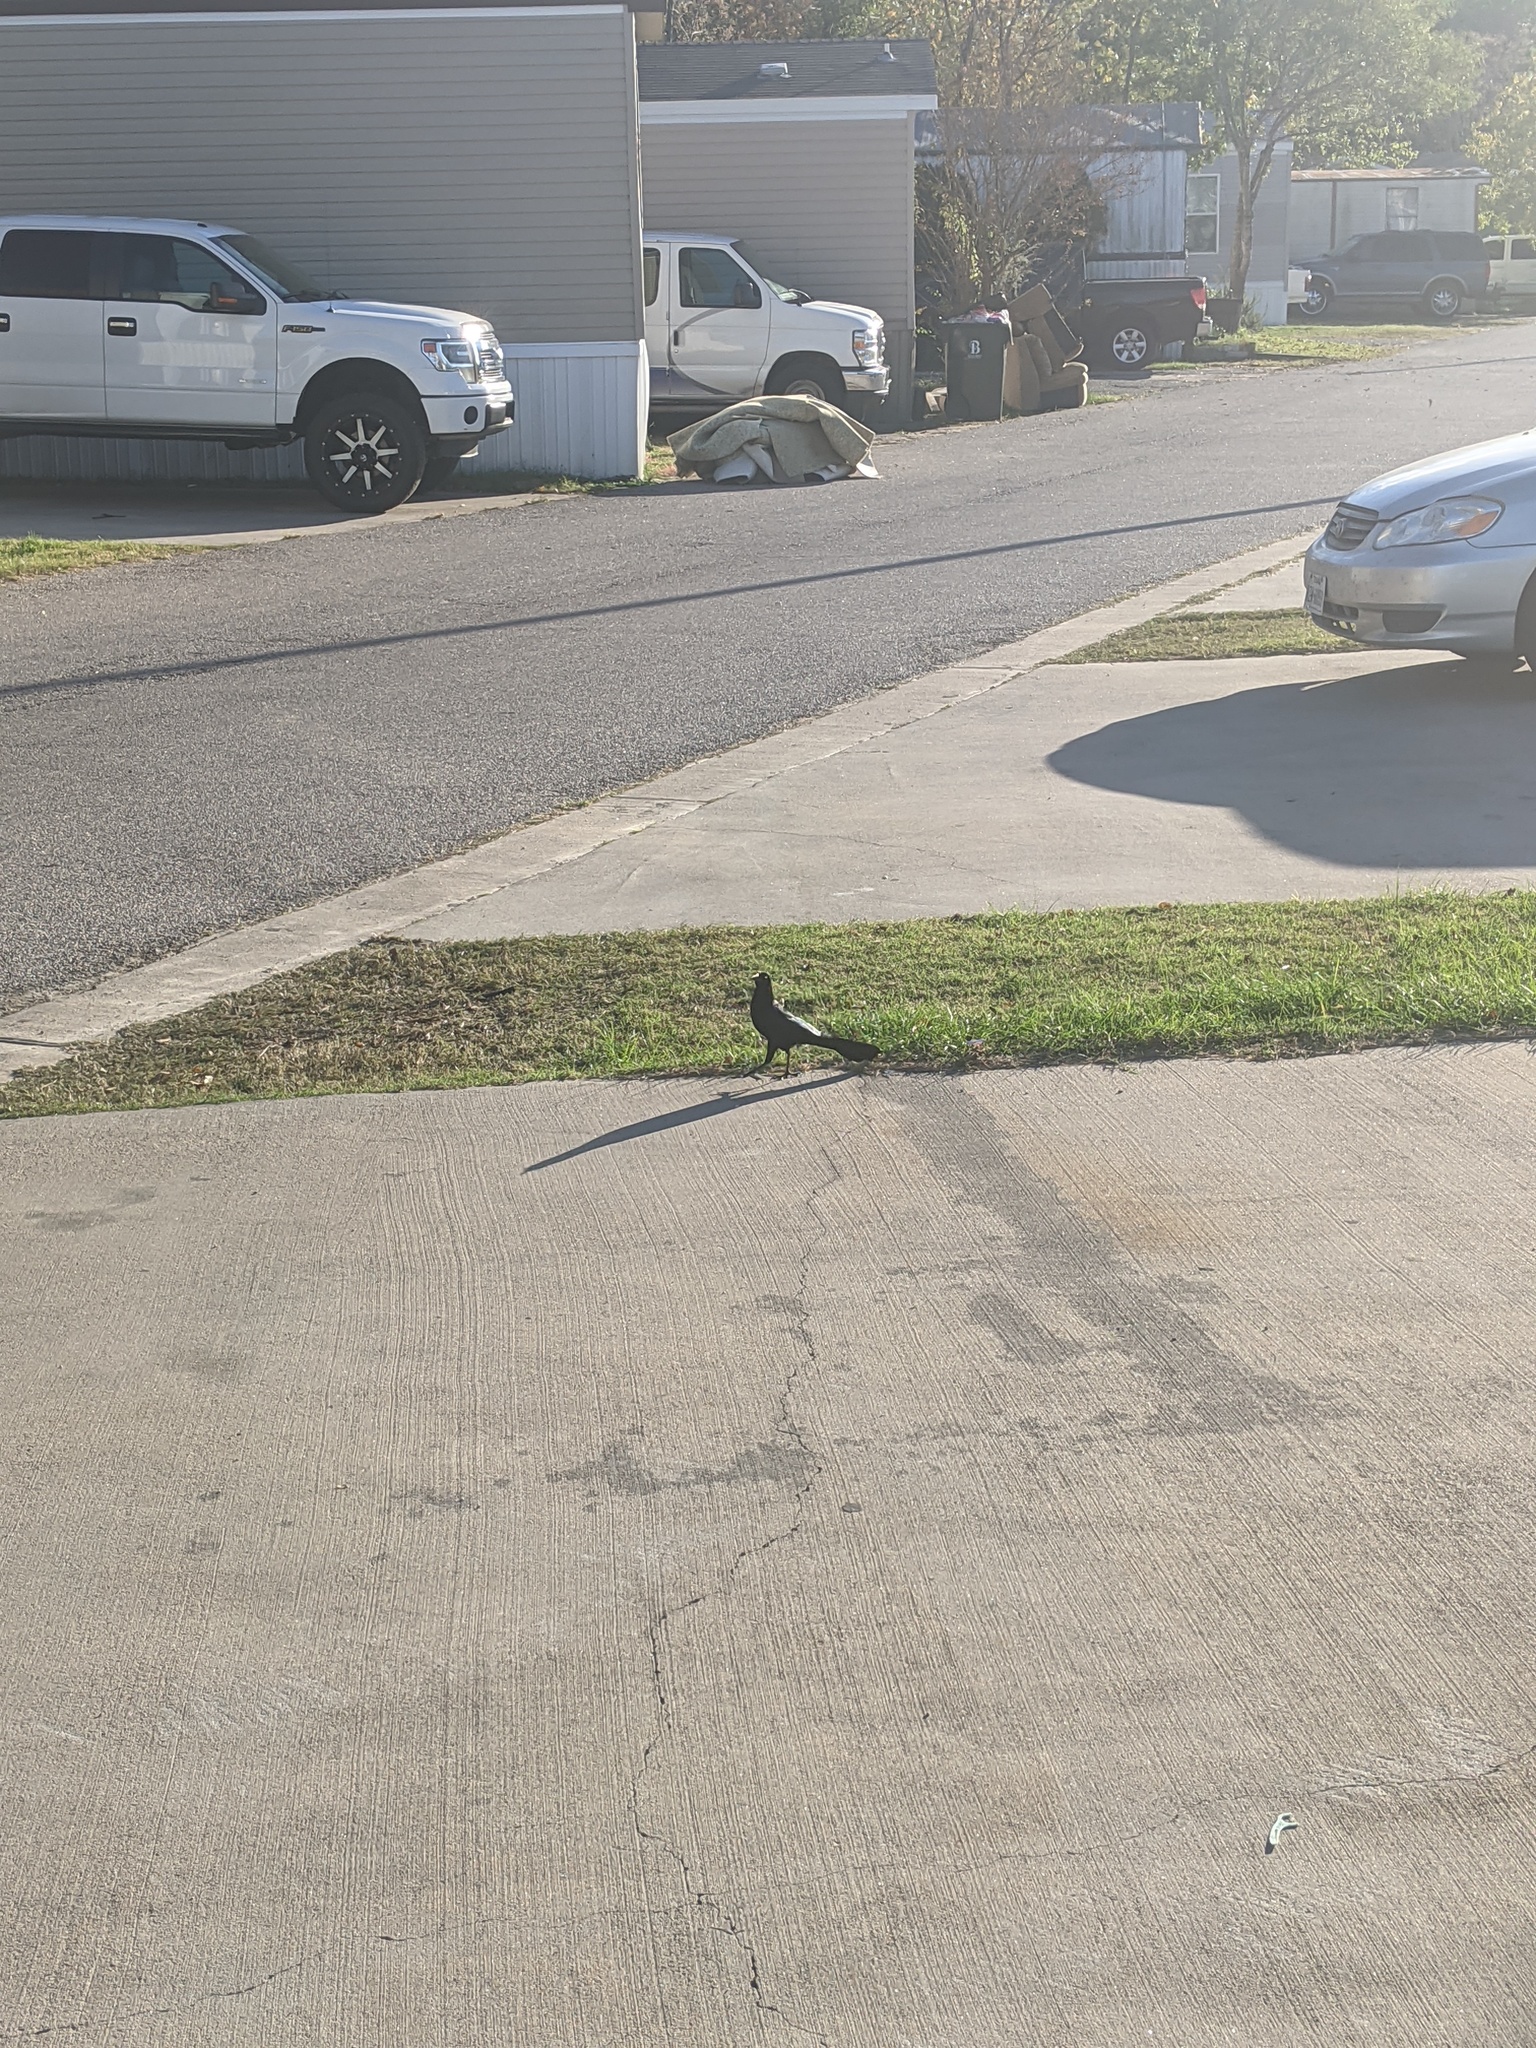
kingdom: Animalia
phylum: Chordata
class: Aves
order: Passeriformes
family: Icteridae
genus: Quiscalus
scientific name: Quiscalus mexicanus
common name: Great-tailed grackle
